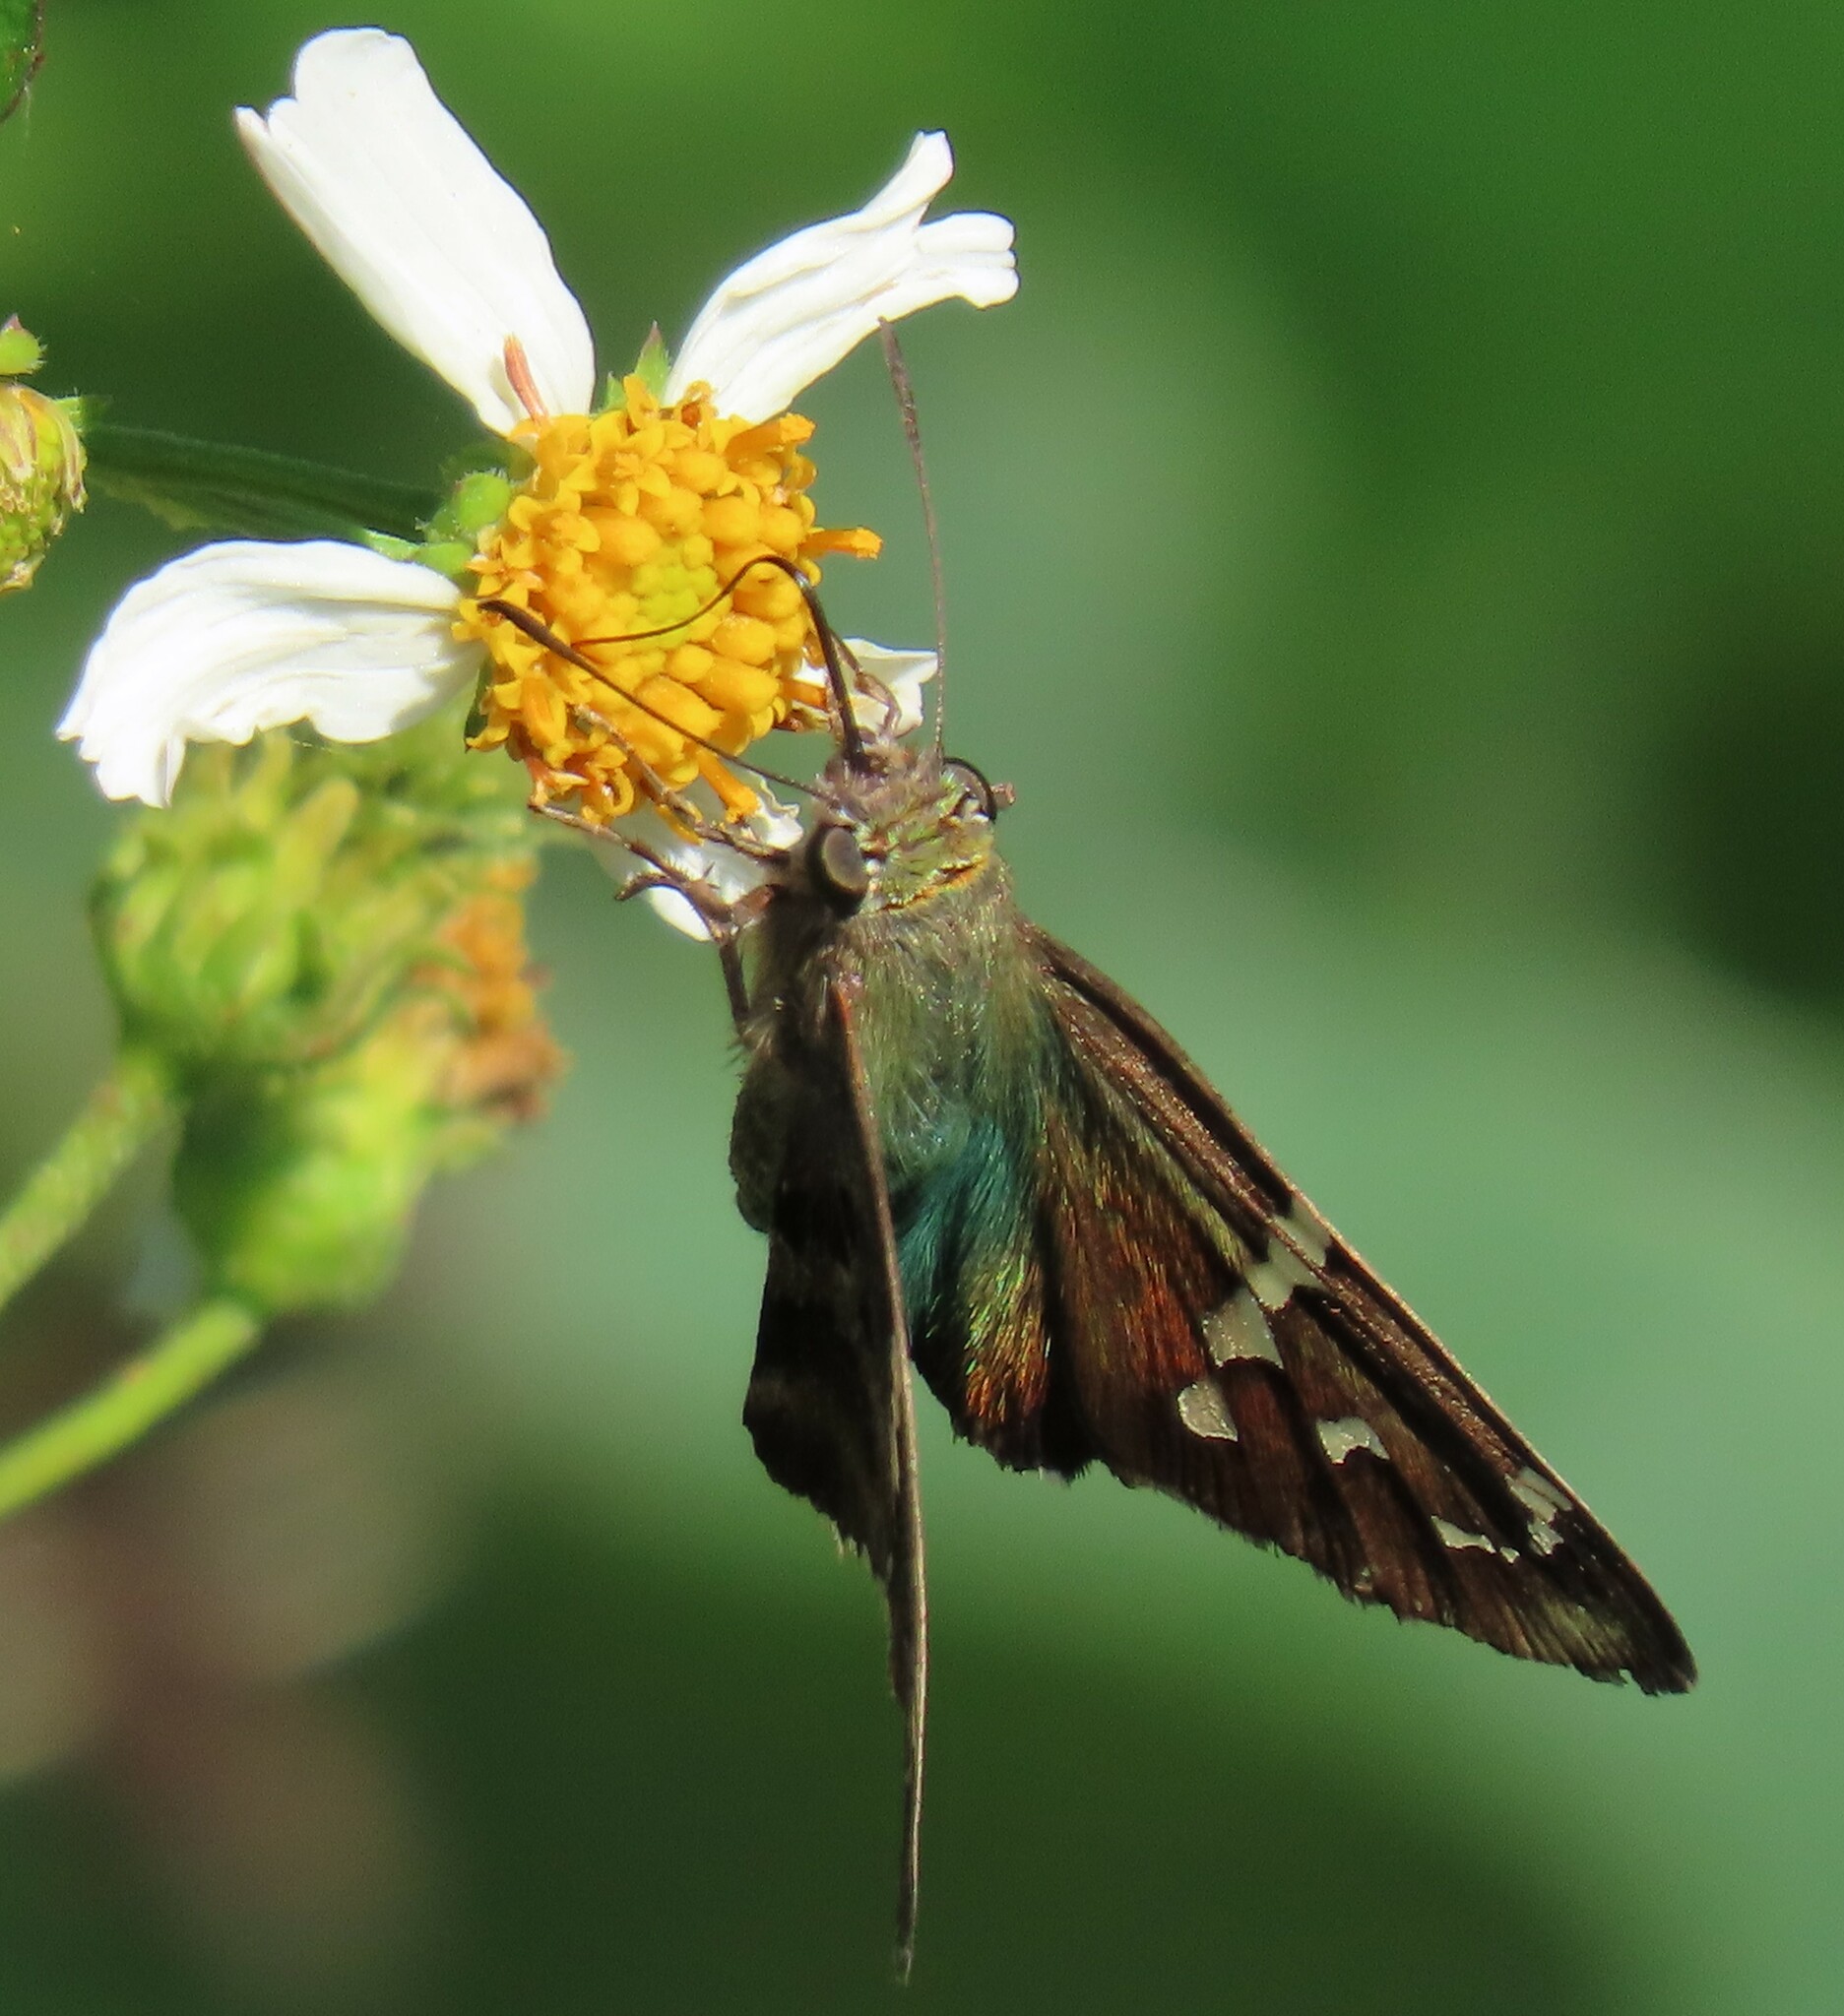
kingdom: Animalia
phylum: Arthropoda
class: Insecta
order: Lepidoptera
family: Hesperiidae
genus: Urbanus
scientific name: Urbanus proteus
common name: Long-tailed skipper
